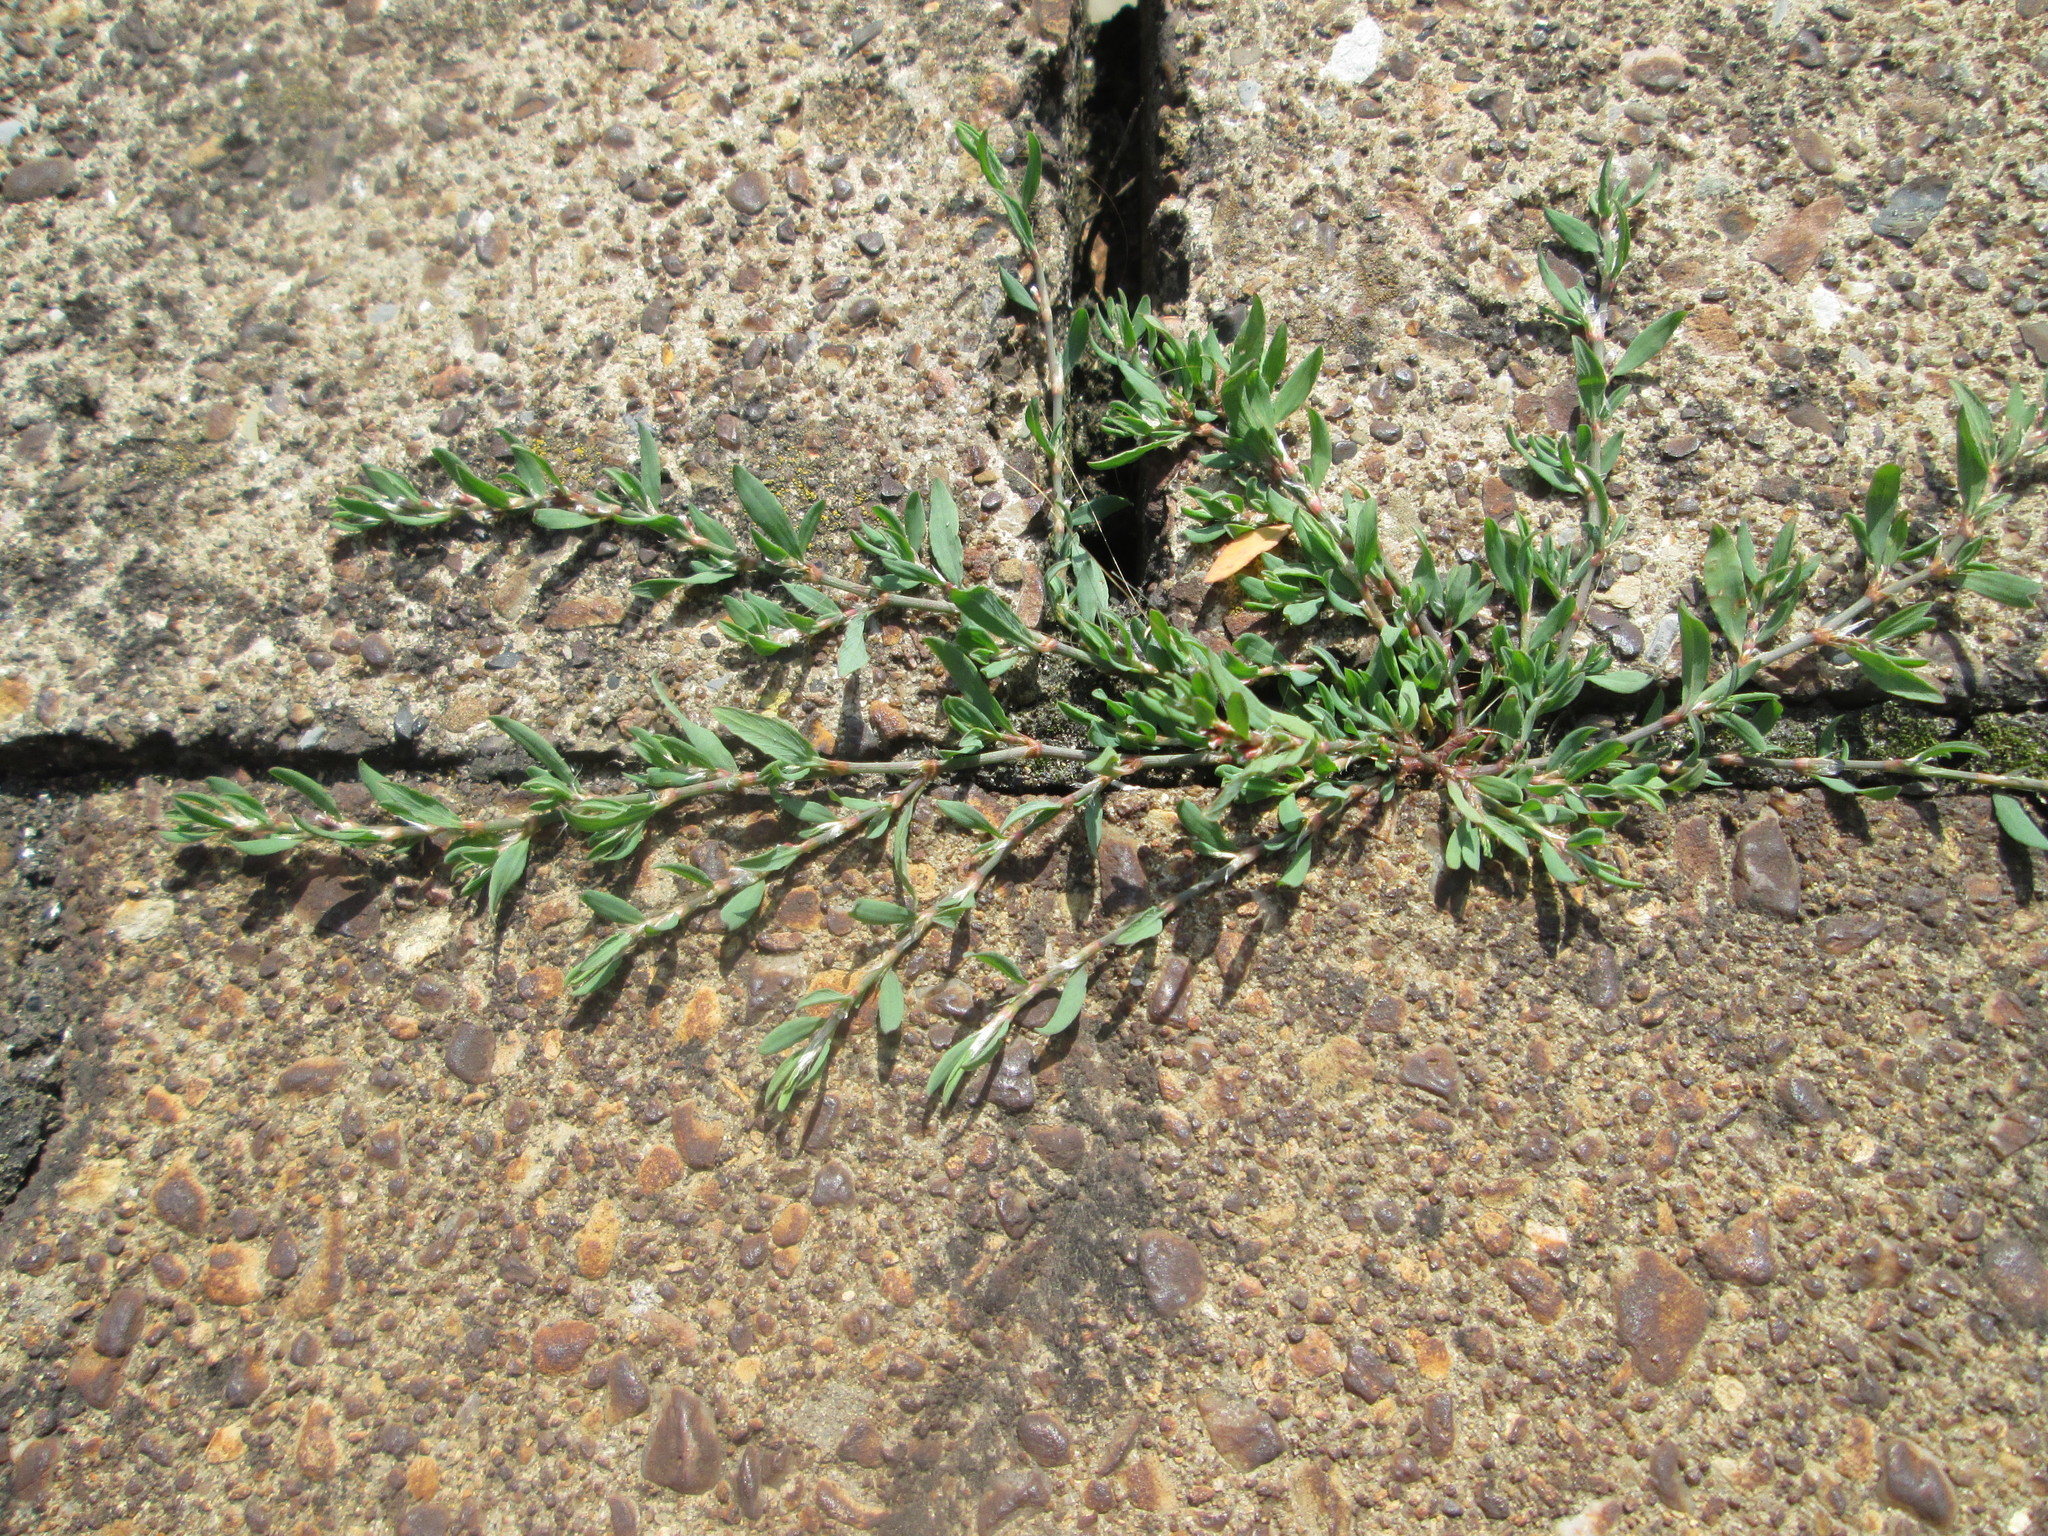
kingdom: Plantae
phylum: Tracheophyta
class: Magnoliopsida
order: Caryophyllales
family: Polygonaceae
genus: Polygonum
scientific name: Polygonum arenastrum
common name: Equal-leaved knotgrass
